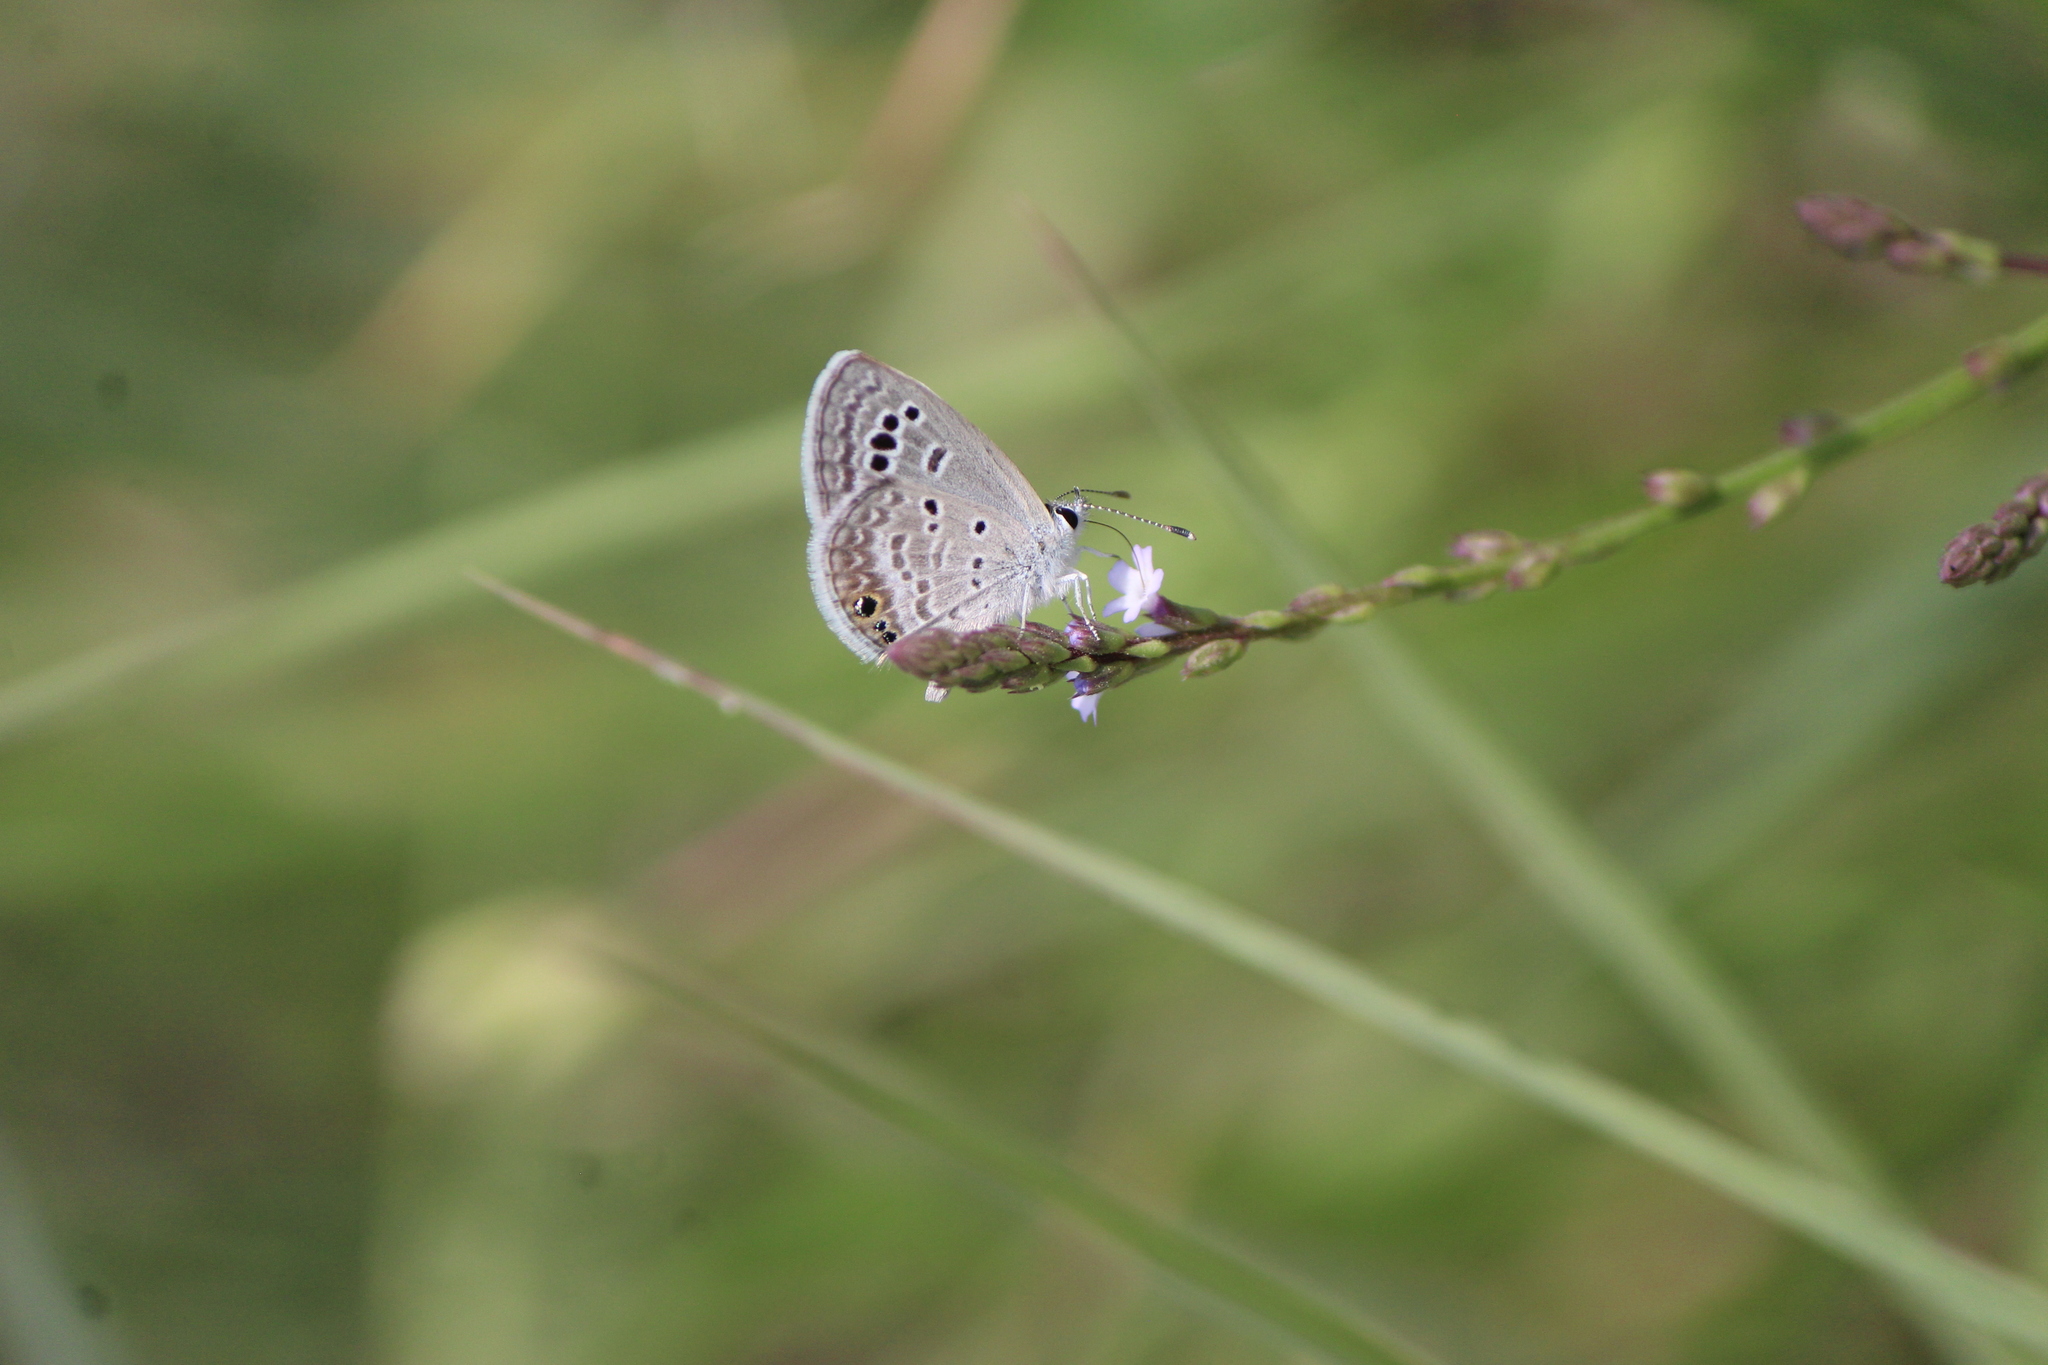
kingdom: Animalia
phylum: Arthropoda
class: Insecta
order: Lepidoptera
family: Lycaenidae
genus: Echinargus
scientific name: Echinargus isola
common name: Reakirt's blue
